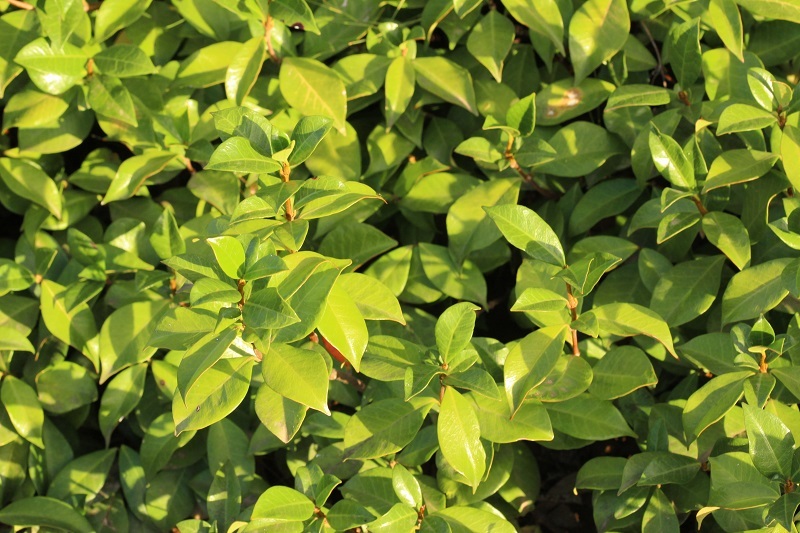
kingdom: Plantae
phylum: Tracheophyta
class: Magnoliopsida
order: Gentianales
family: Apocynaceae
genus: Trachelospermum
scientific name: Trachelospermum jasminoides
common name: Confederate jasmine
